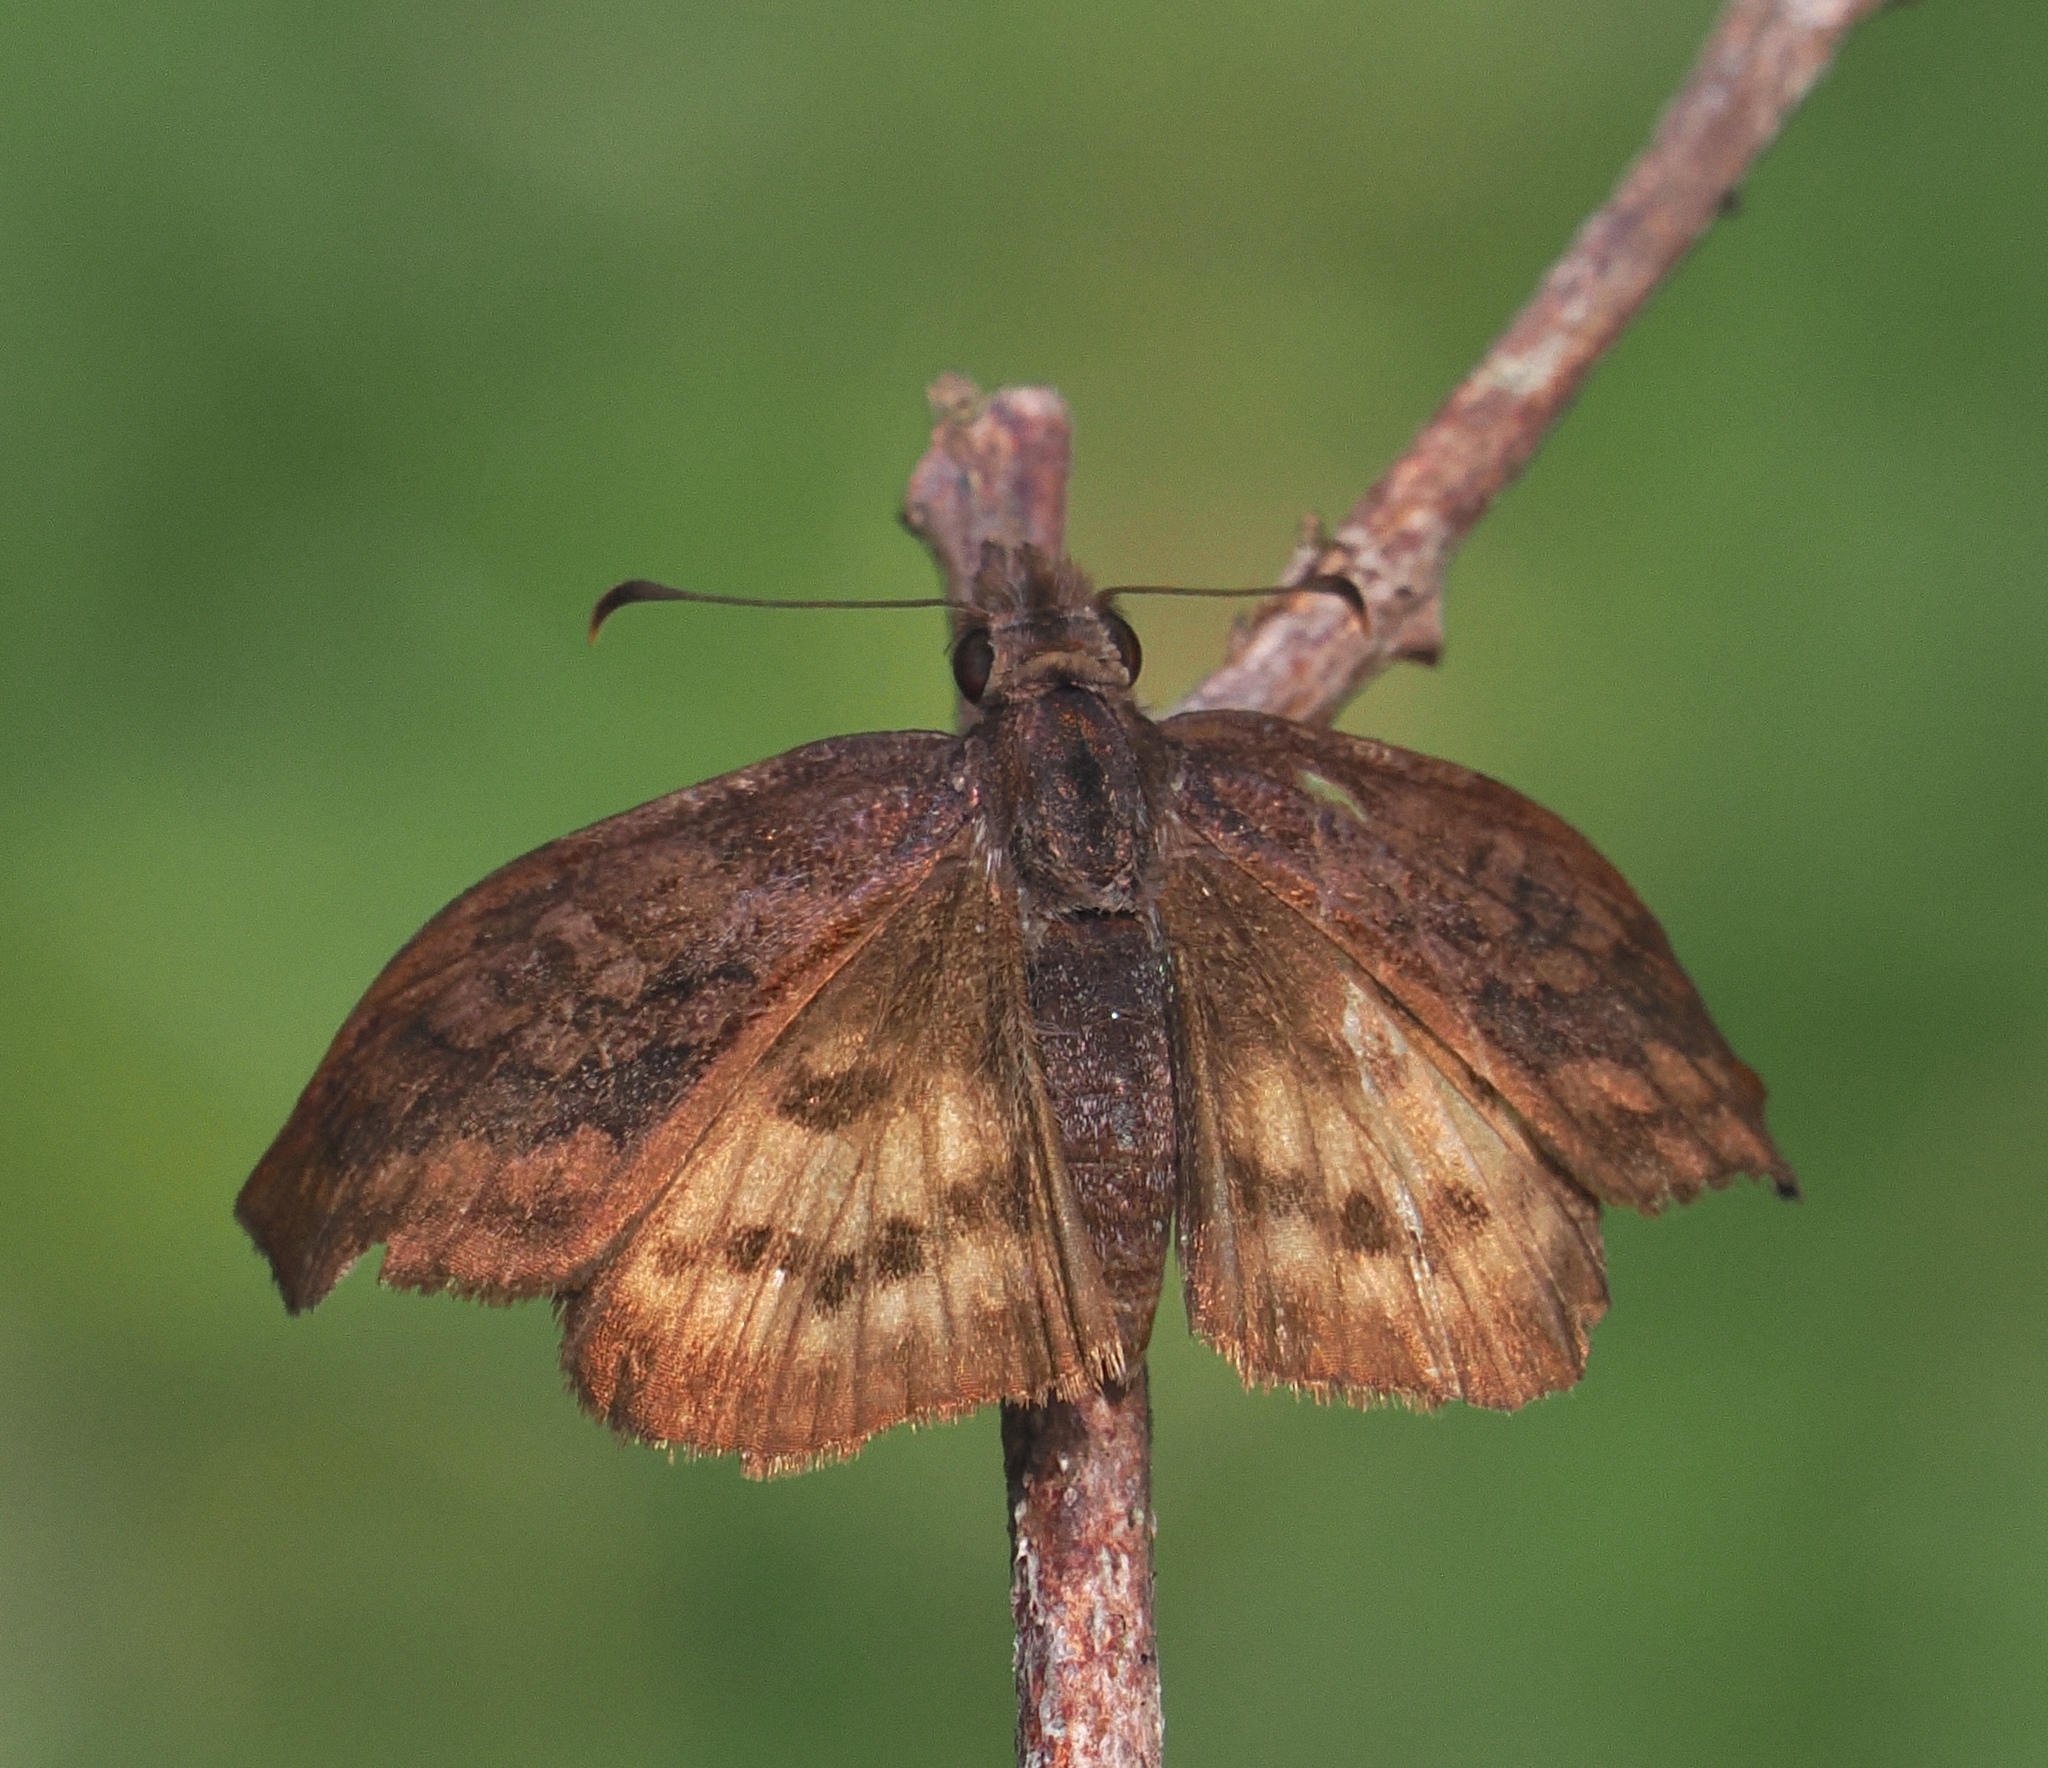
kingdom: Animalia
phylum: Arthropoda
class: Insecta
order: Lepidoptera
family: Hesperiidae
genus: Theagenes
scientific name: Theagenes dichrous
